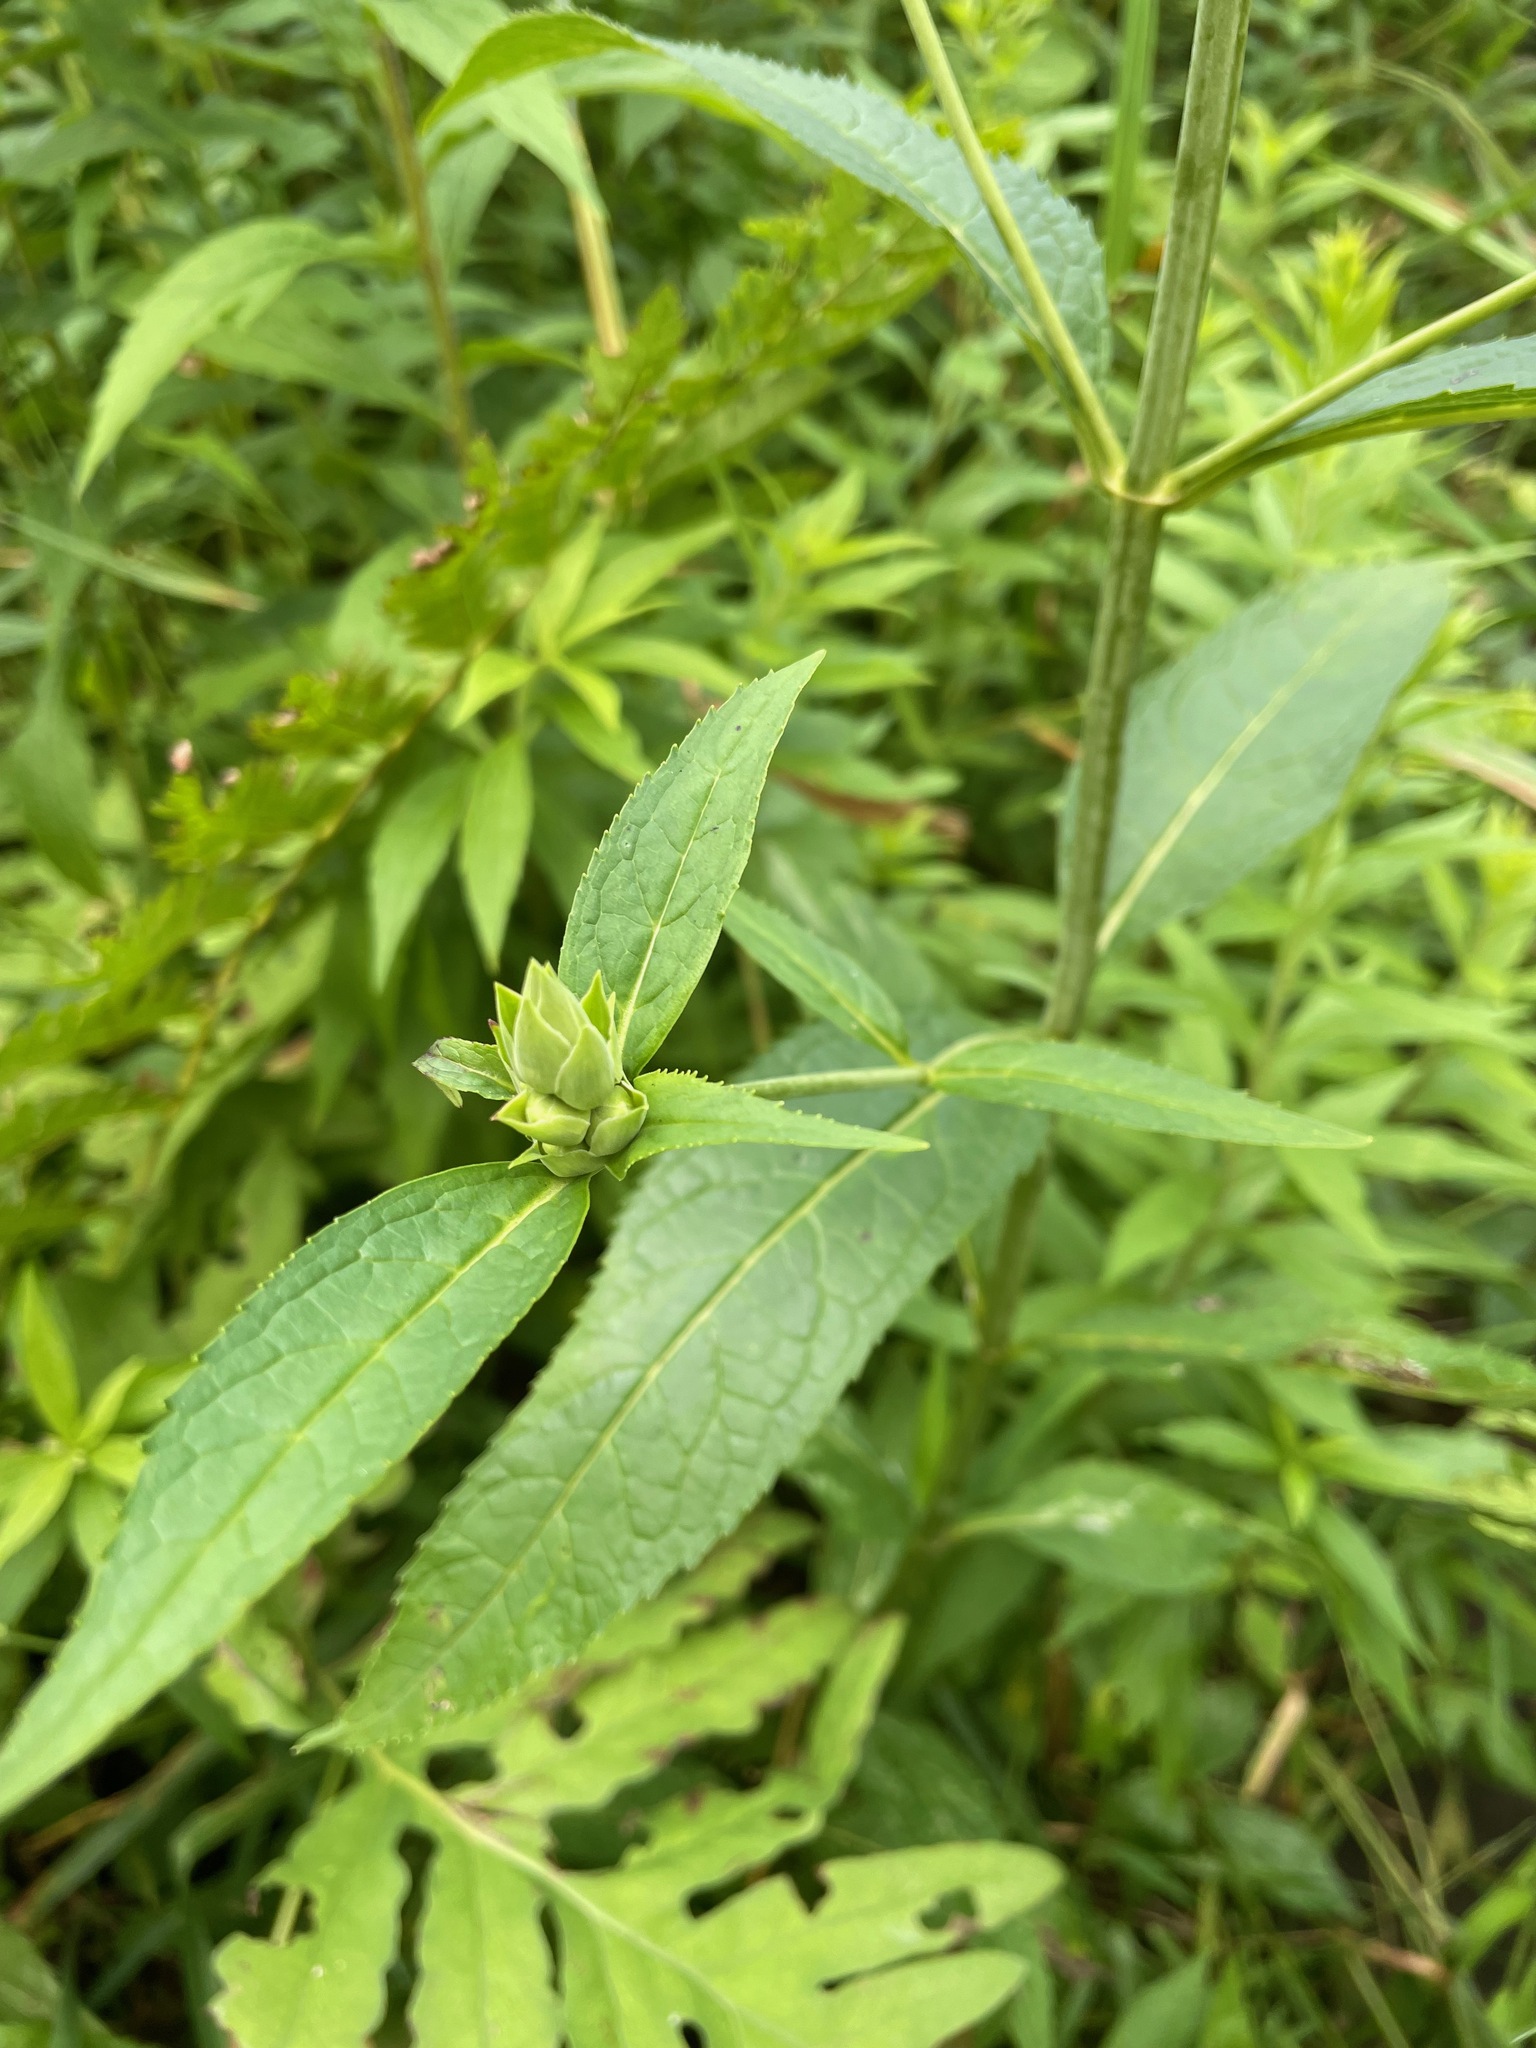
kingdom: Plantae
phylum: Tracheophyta
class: Magnoliopsida
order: Lamiales
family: Plantaginaceae
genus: Chelone
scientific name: Chelone glabra
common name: Snakehead
